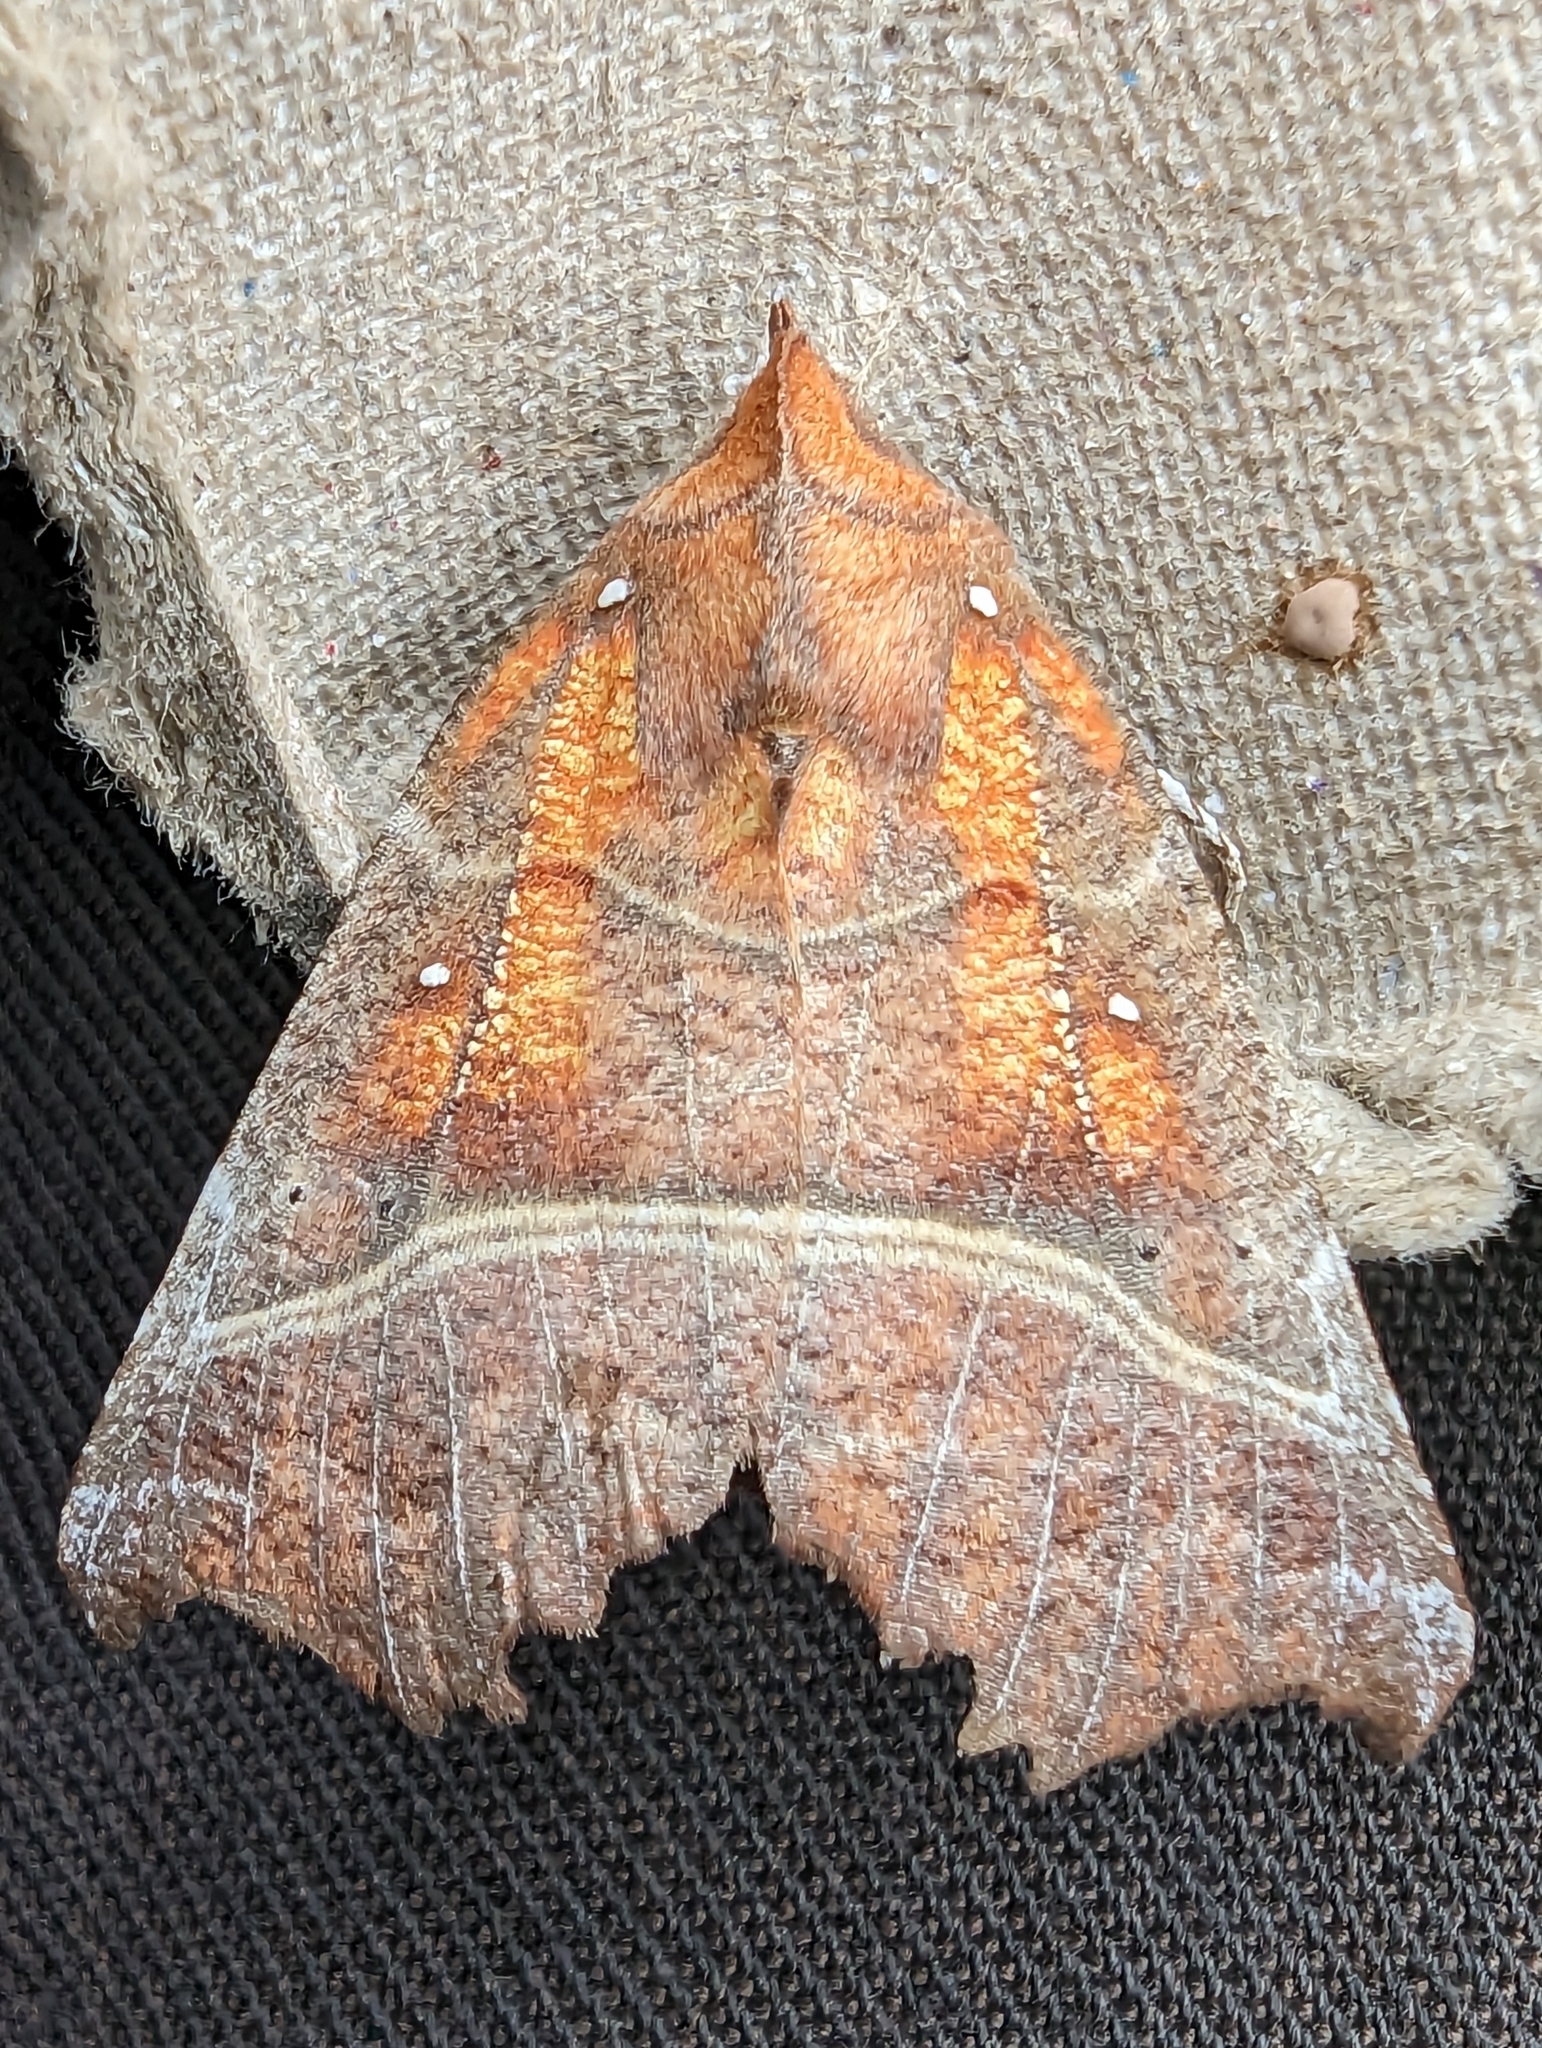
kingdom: Animalia
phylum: Arthropoda
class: Insecta
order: Lepidoptera
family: Erebidae
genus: Scoliopteryx
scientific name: Scoliopteryx libatrix
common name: Herald
